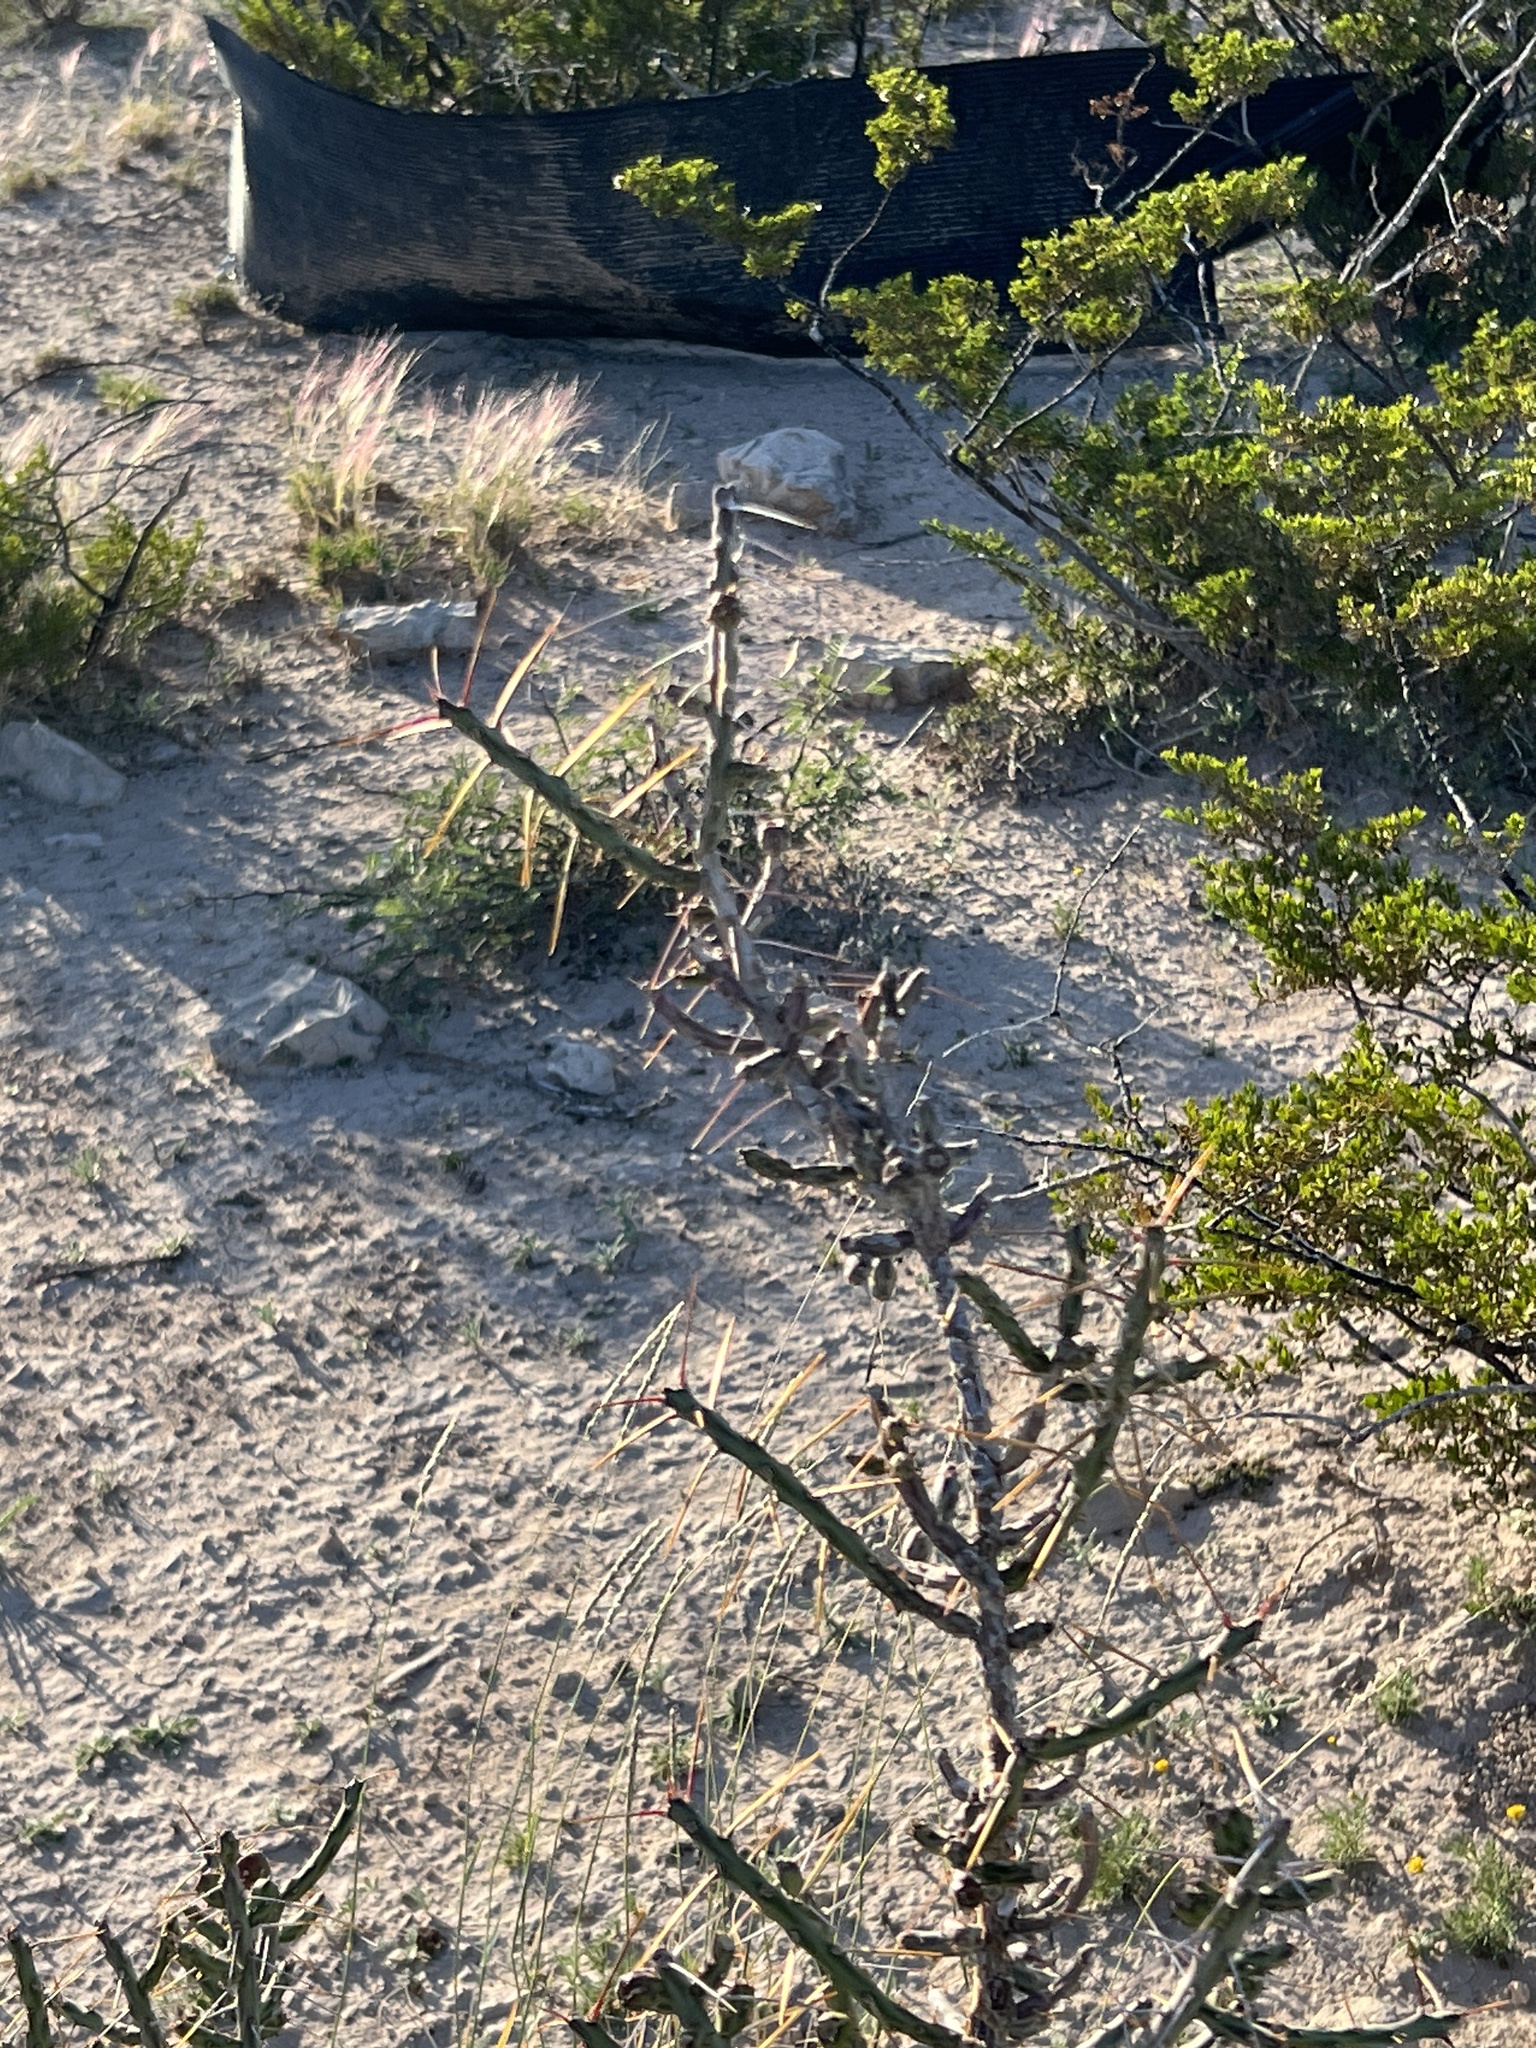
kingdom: Plantae
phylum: Tracheophyta
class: Magnoliopsida
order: Caryophyllales
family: Cactaceae
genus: Cylindropuntia
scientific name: Cylindropuntia leptocaulis
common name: Christmas cactus
